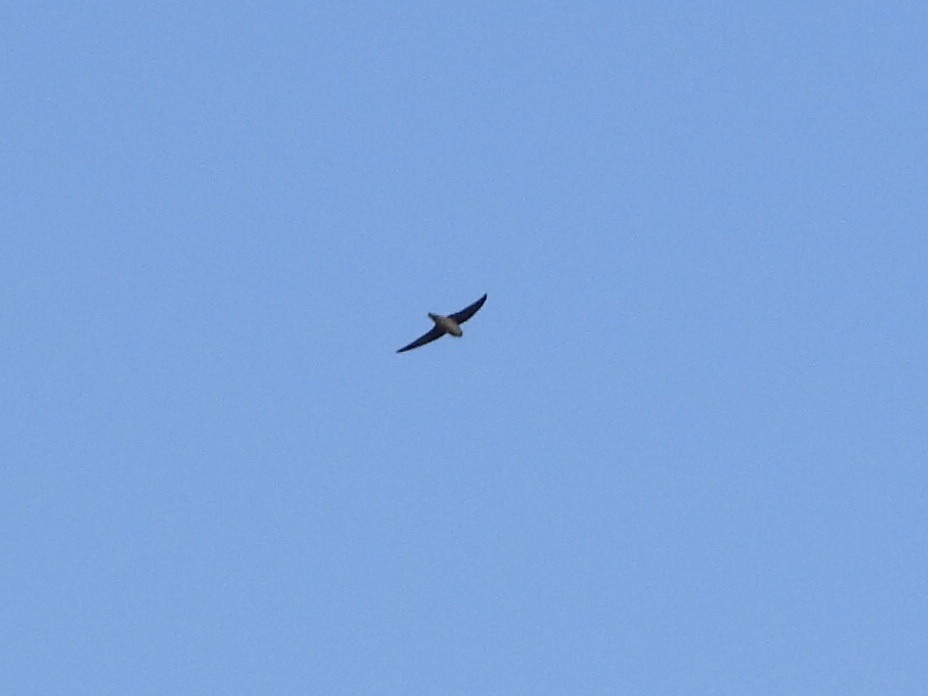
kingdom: Animalia
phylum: Chordata
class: Aves
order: Apodiformes
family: Apodidae
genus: Chaetura
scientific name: Chaetura vauxi
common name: Vaux's swift
